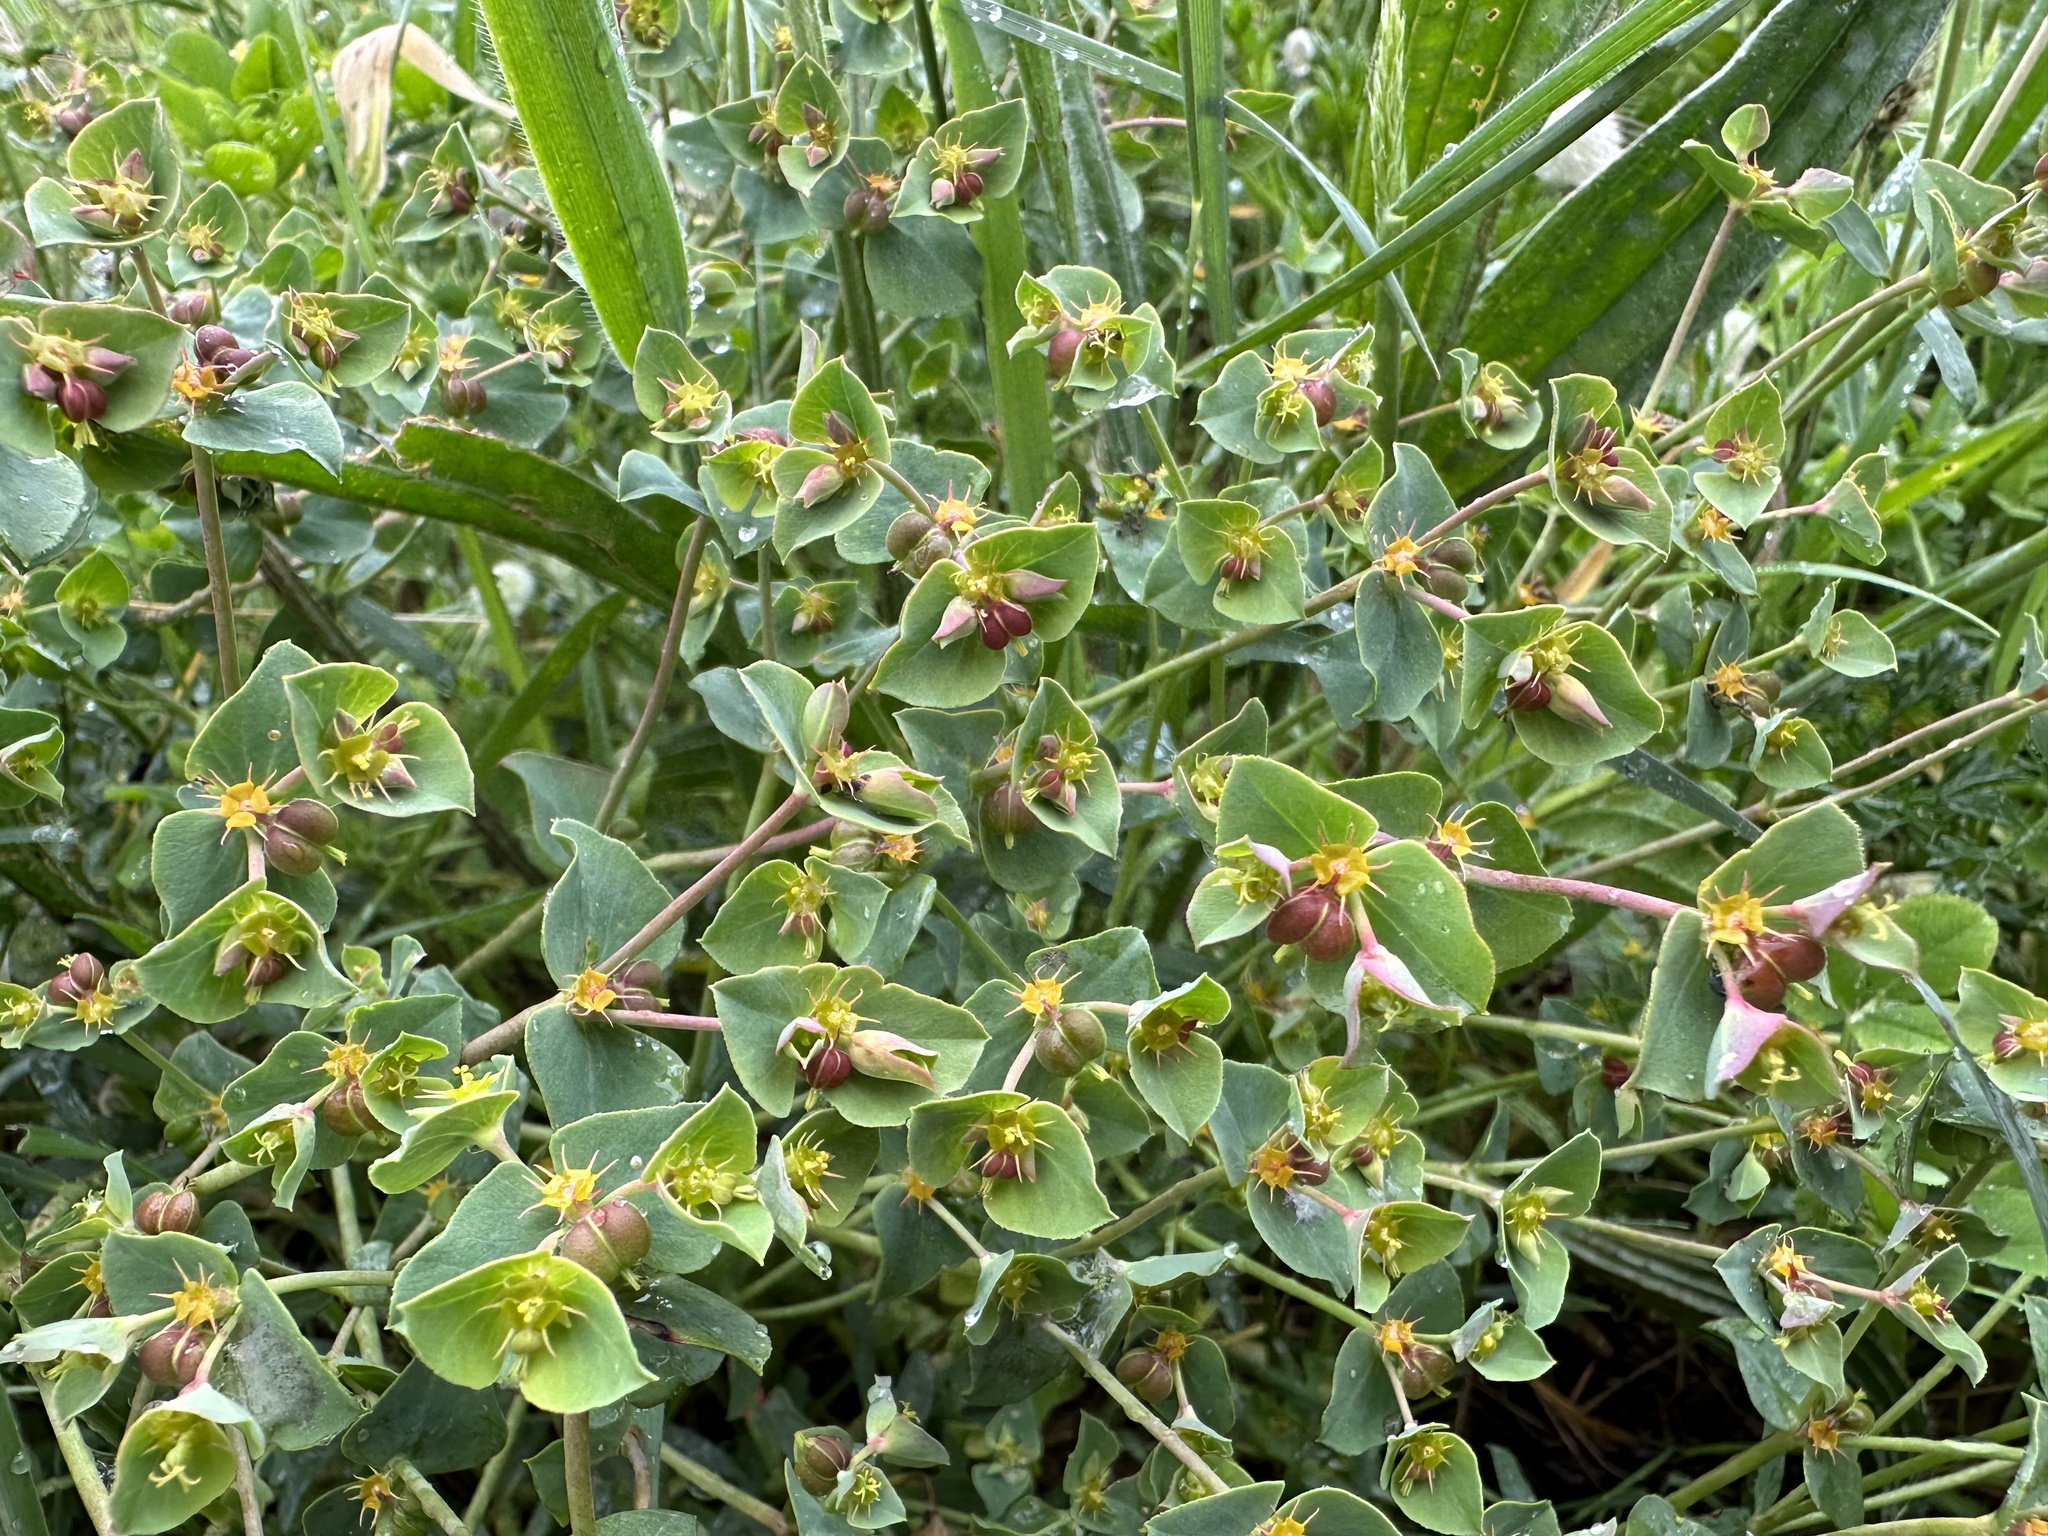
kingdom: Plantae
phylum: Tracheophyta
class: Magnoliopsida
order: Malpighiales
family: Euphorbiaceae
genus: Euphorbia
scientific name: Euphorbia terracina
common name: Geraldton carnation weed
